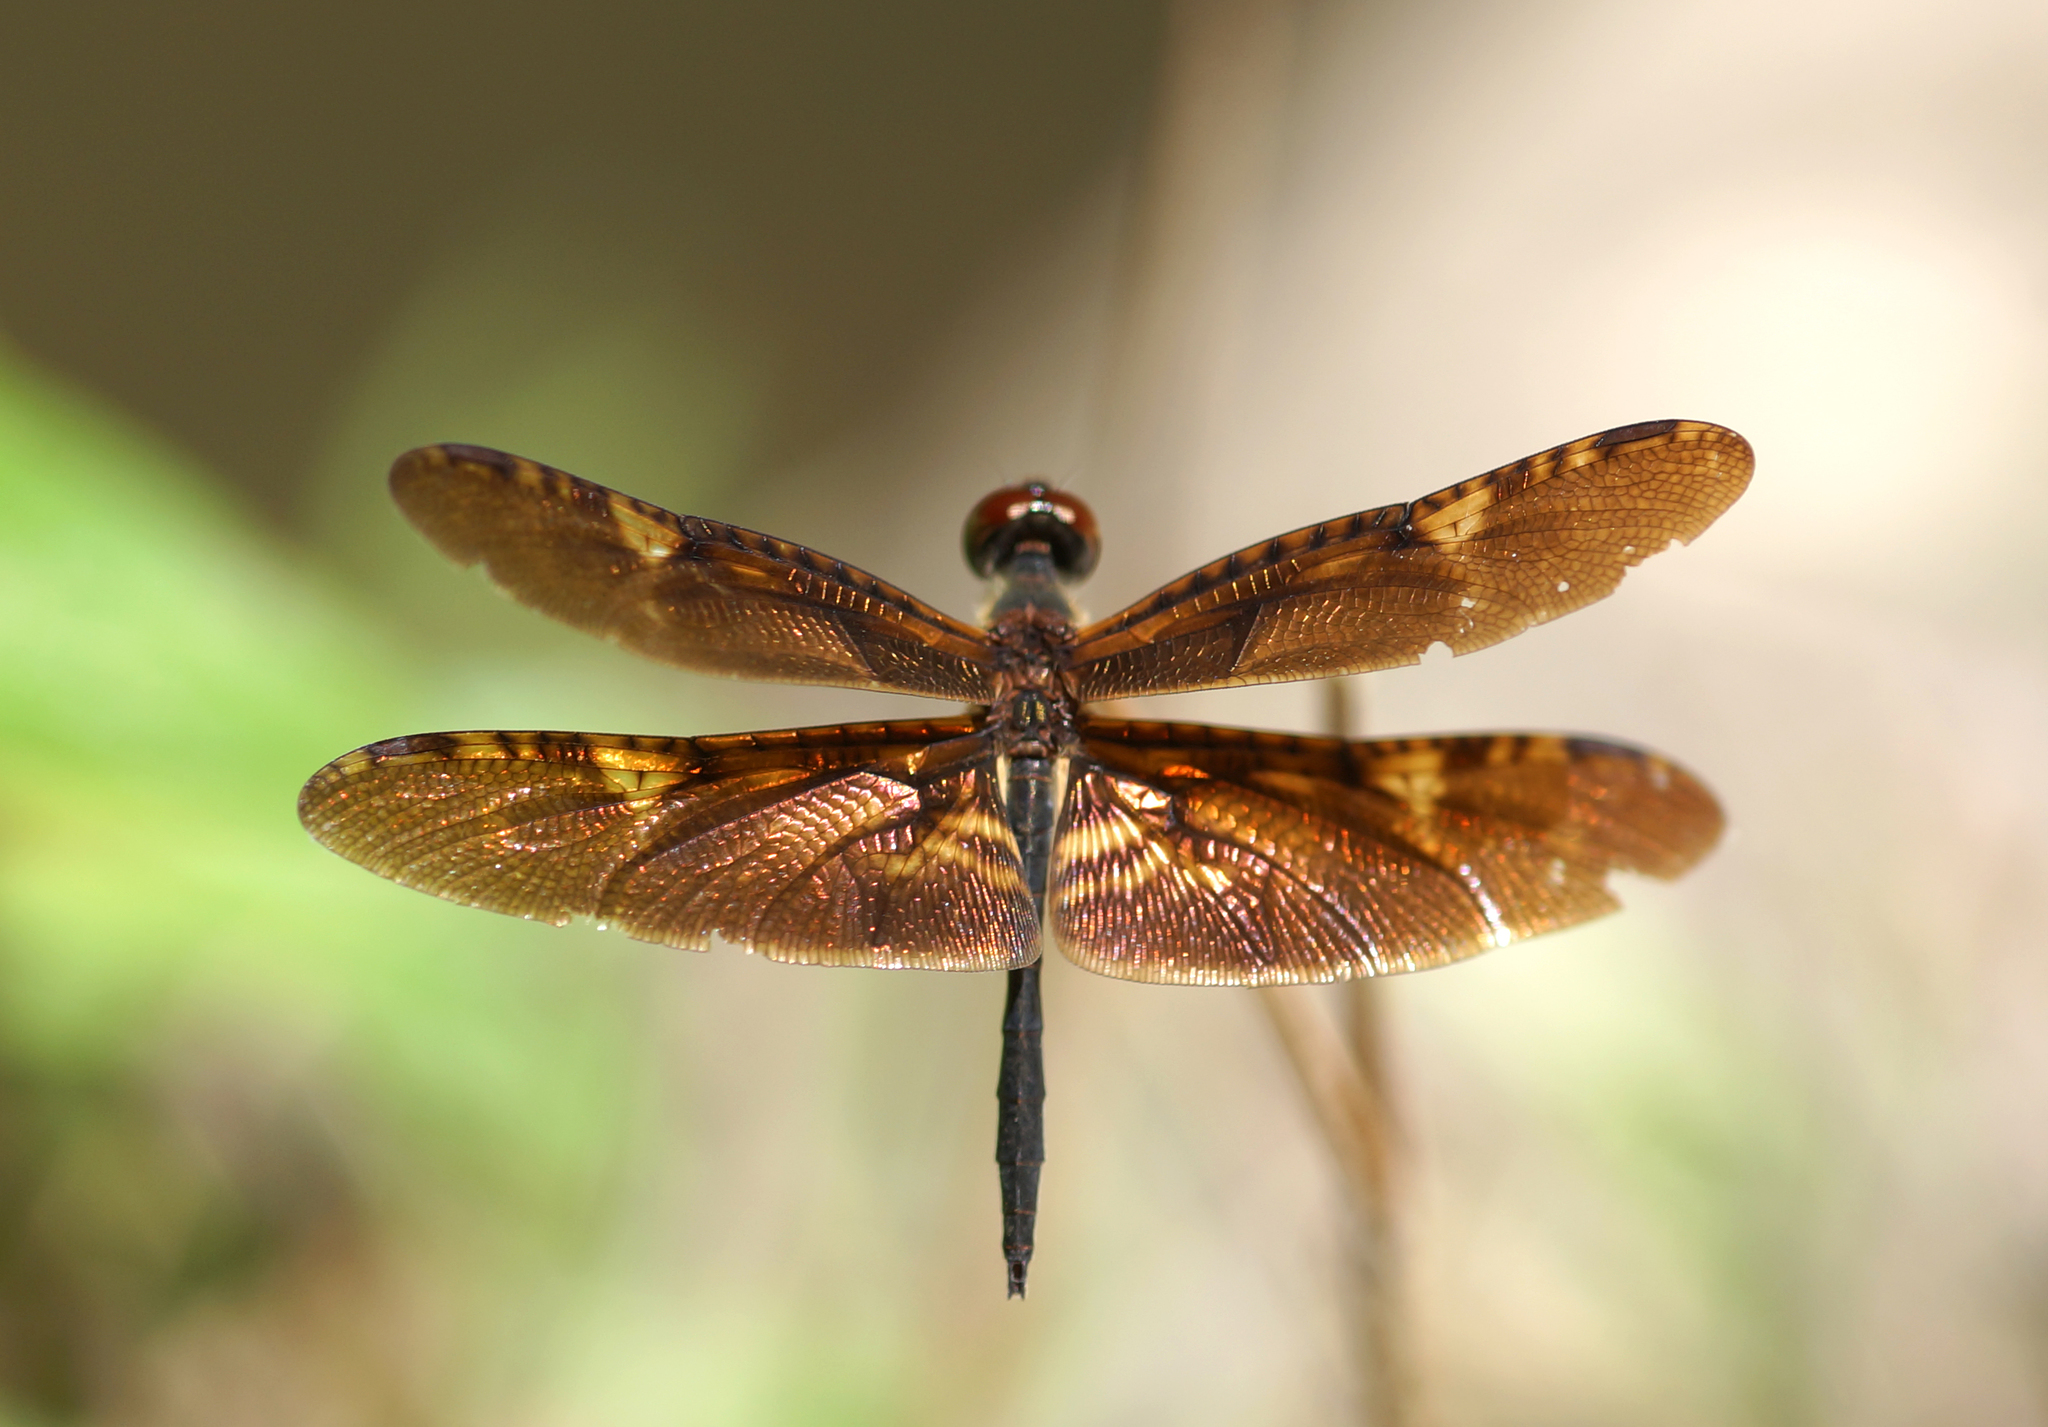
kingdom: Animalia
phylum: Arthropoda
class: Insecta
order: Odonata
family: Libellulidae
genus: Rhyothemis
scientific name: Rhyothemis obsolescens
